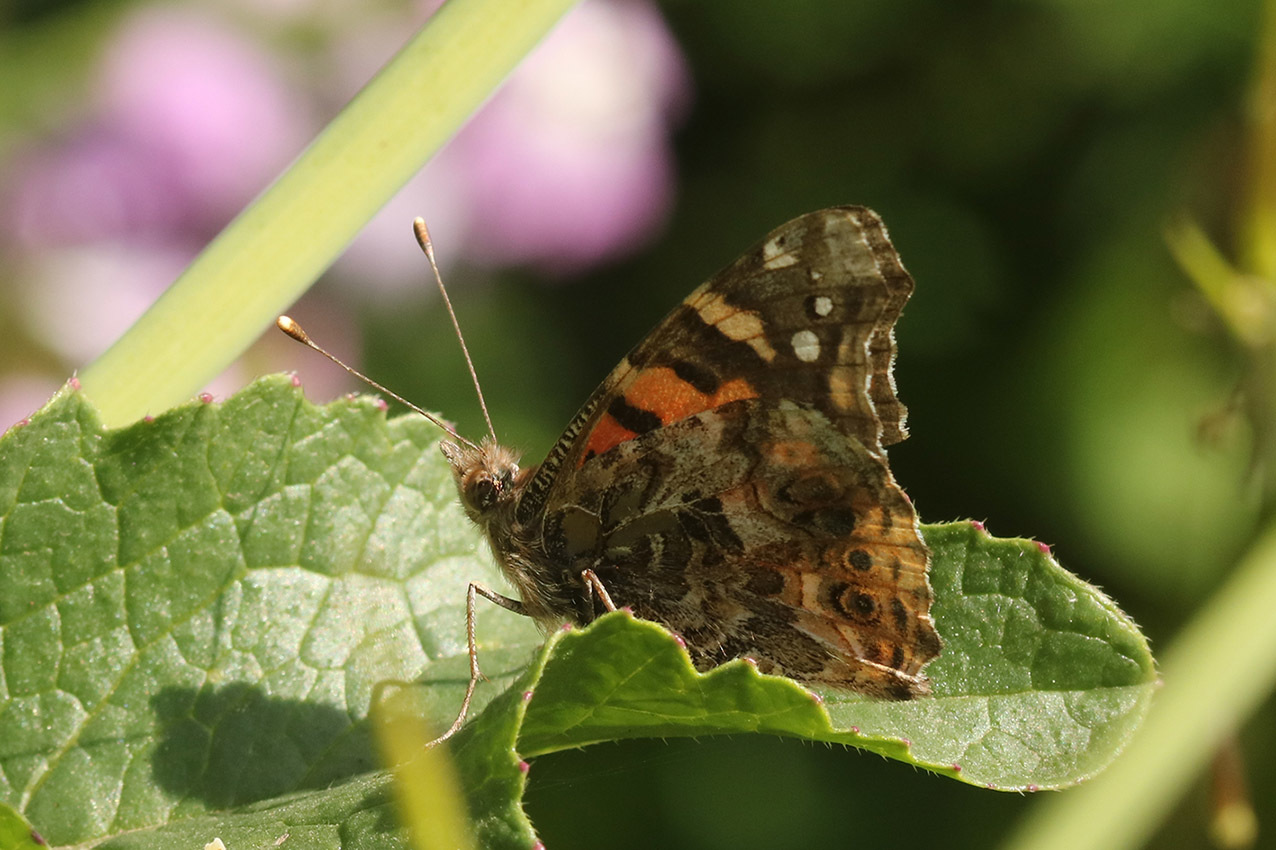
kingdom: Animalia
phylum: Arthropoda
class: Insecta
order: Lepidoptera
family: Nymphalidae
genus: Vanessa
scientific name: Vanessa carye
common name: Subtropical lady
